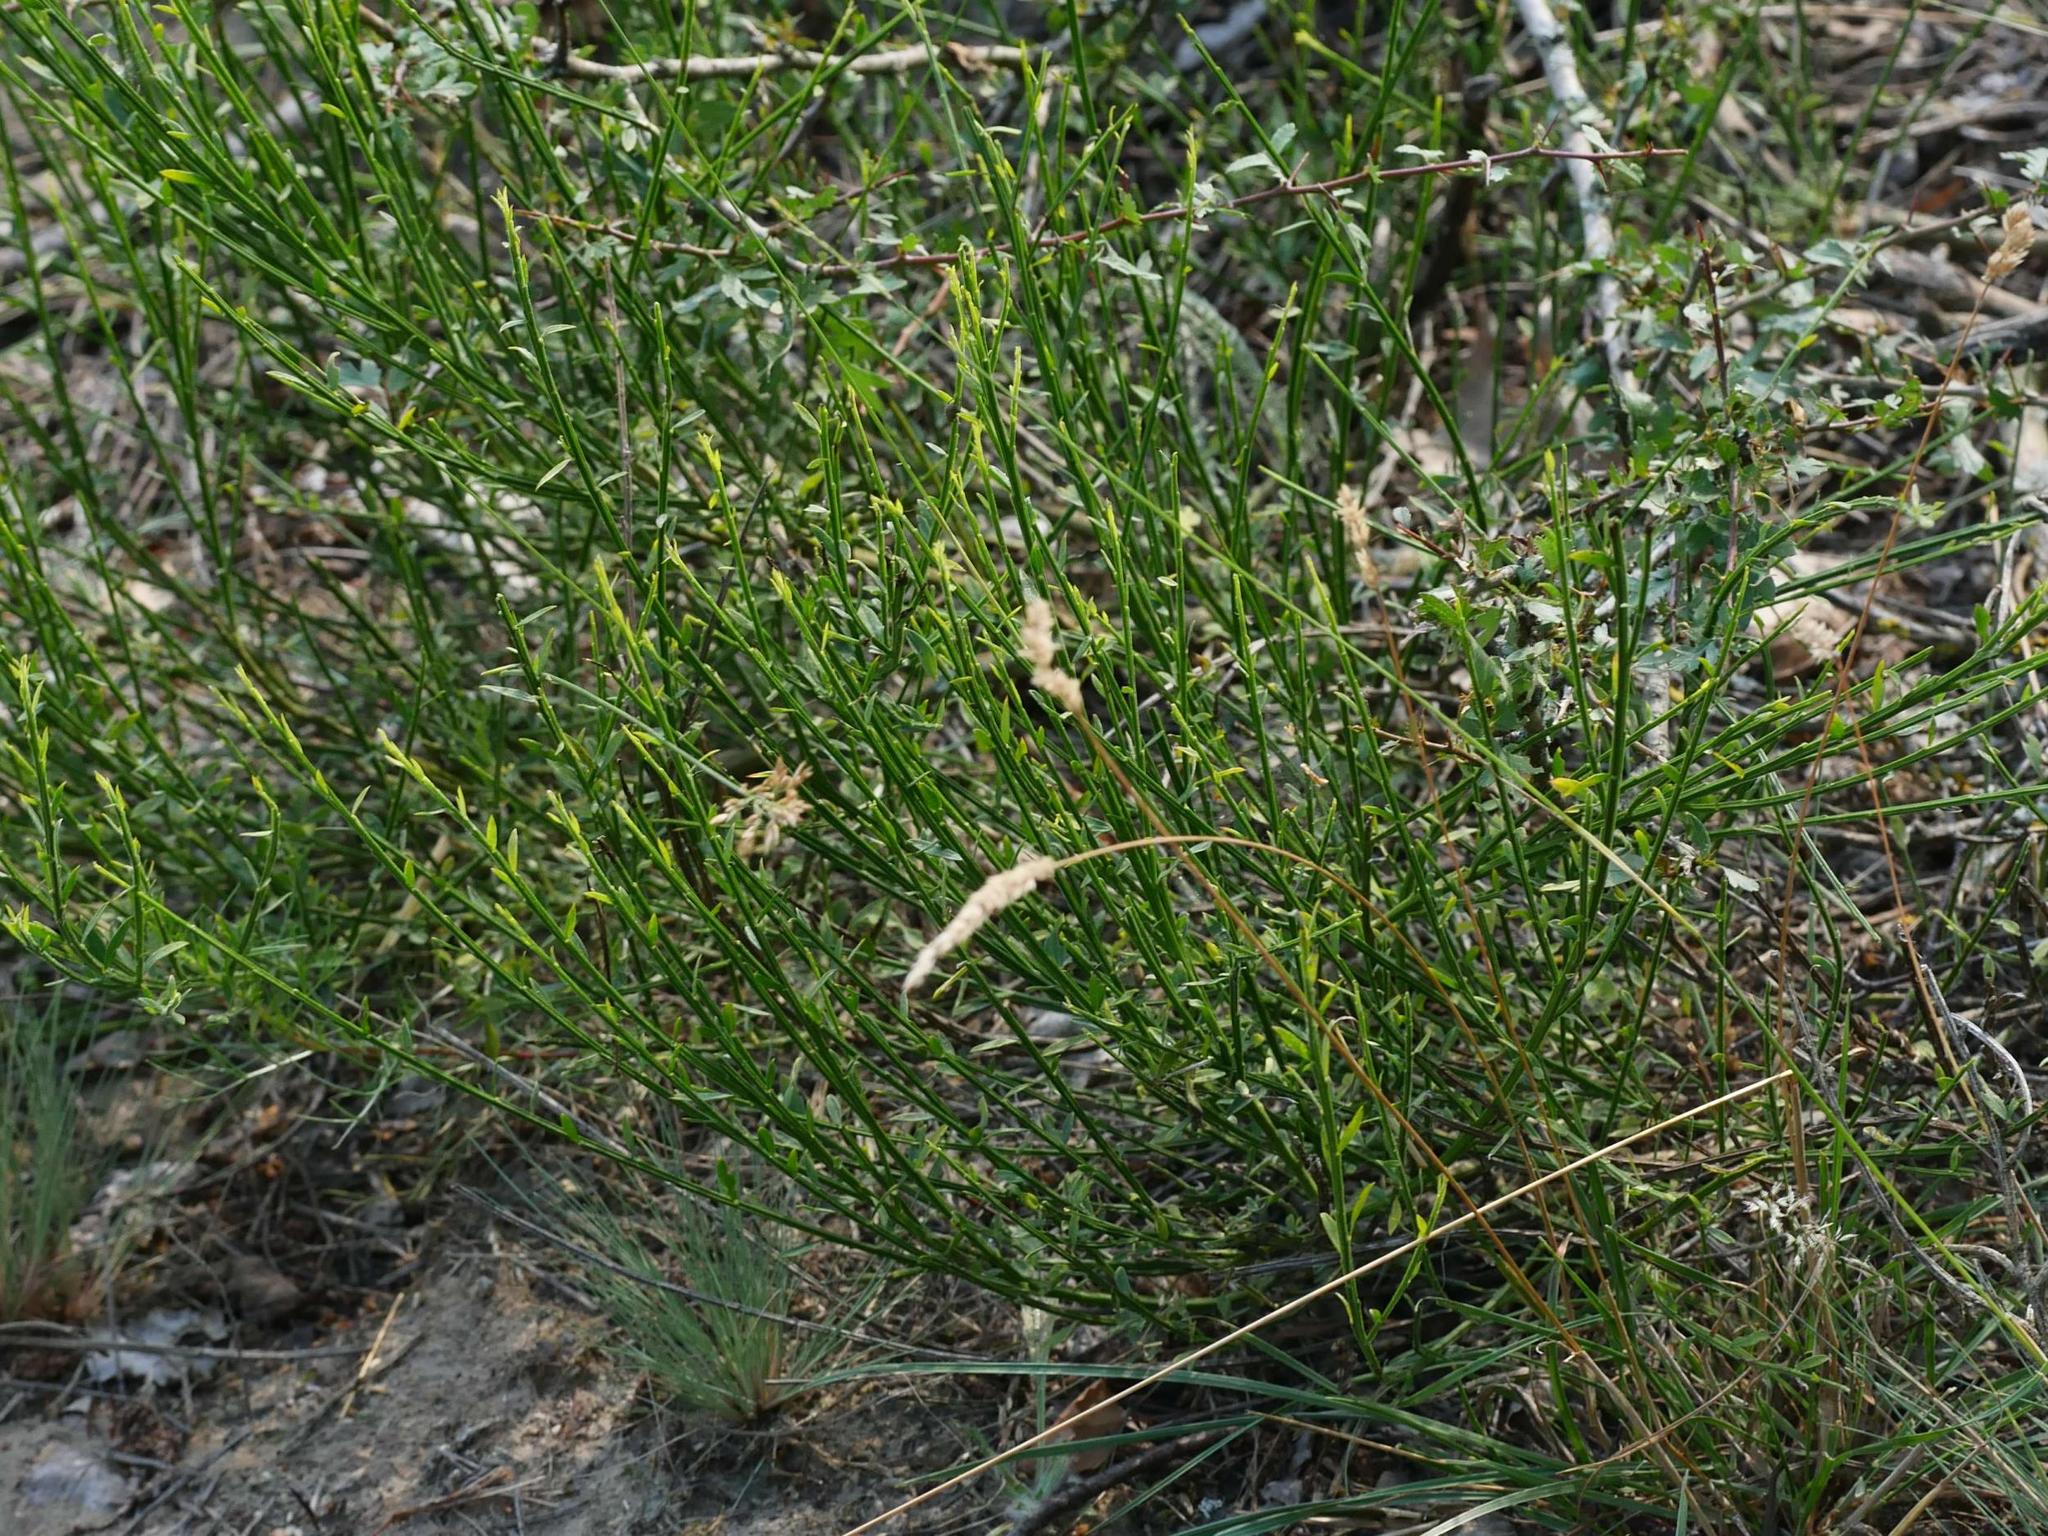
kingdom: Plantae
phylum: Tracheophyta
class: Magnoliopsida
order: Fabales
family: Fabaceae
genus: Cytisus
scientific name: Cytisus scoparius
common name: Scotch broom
